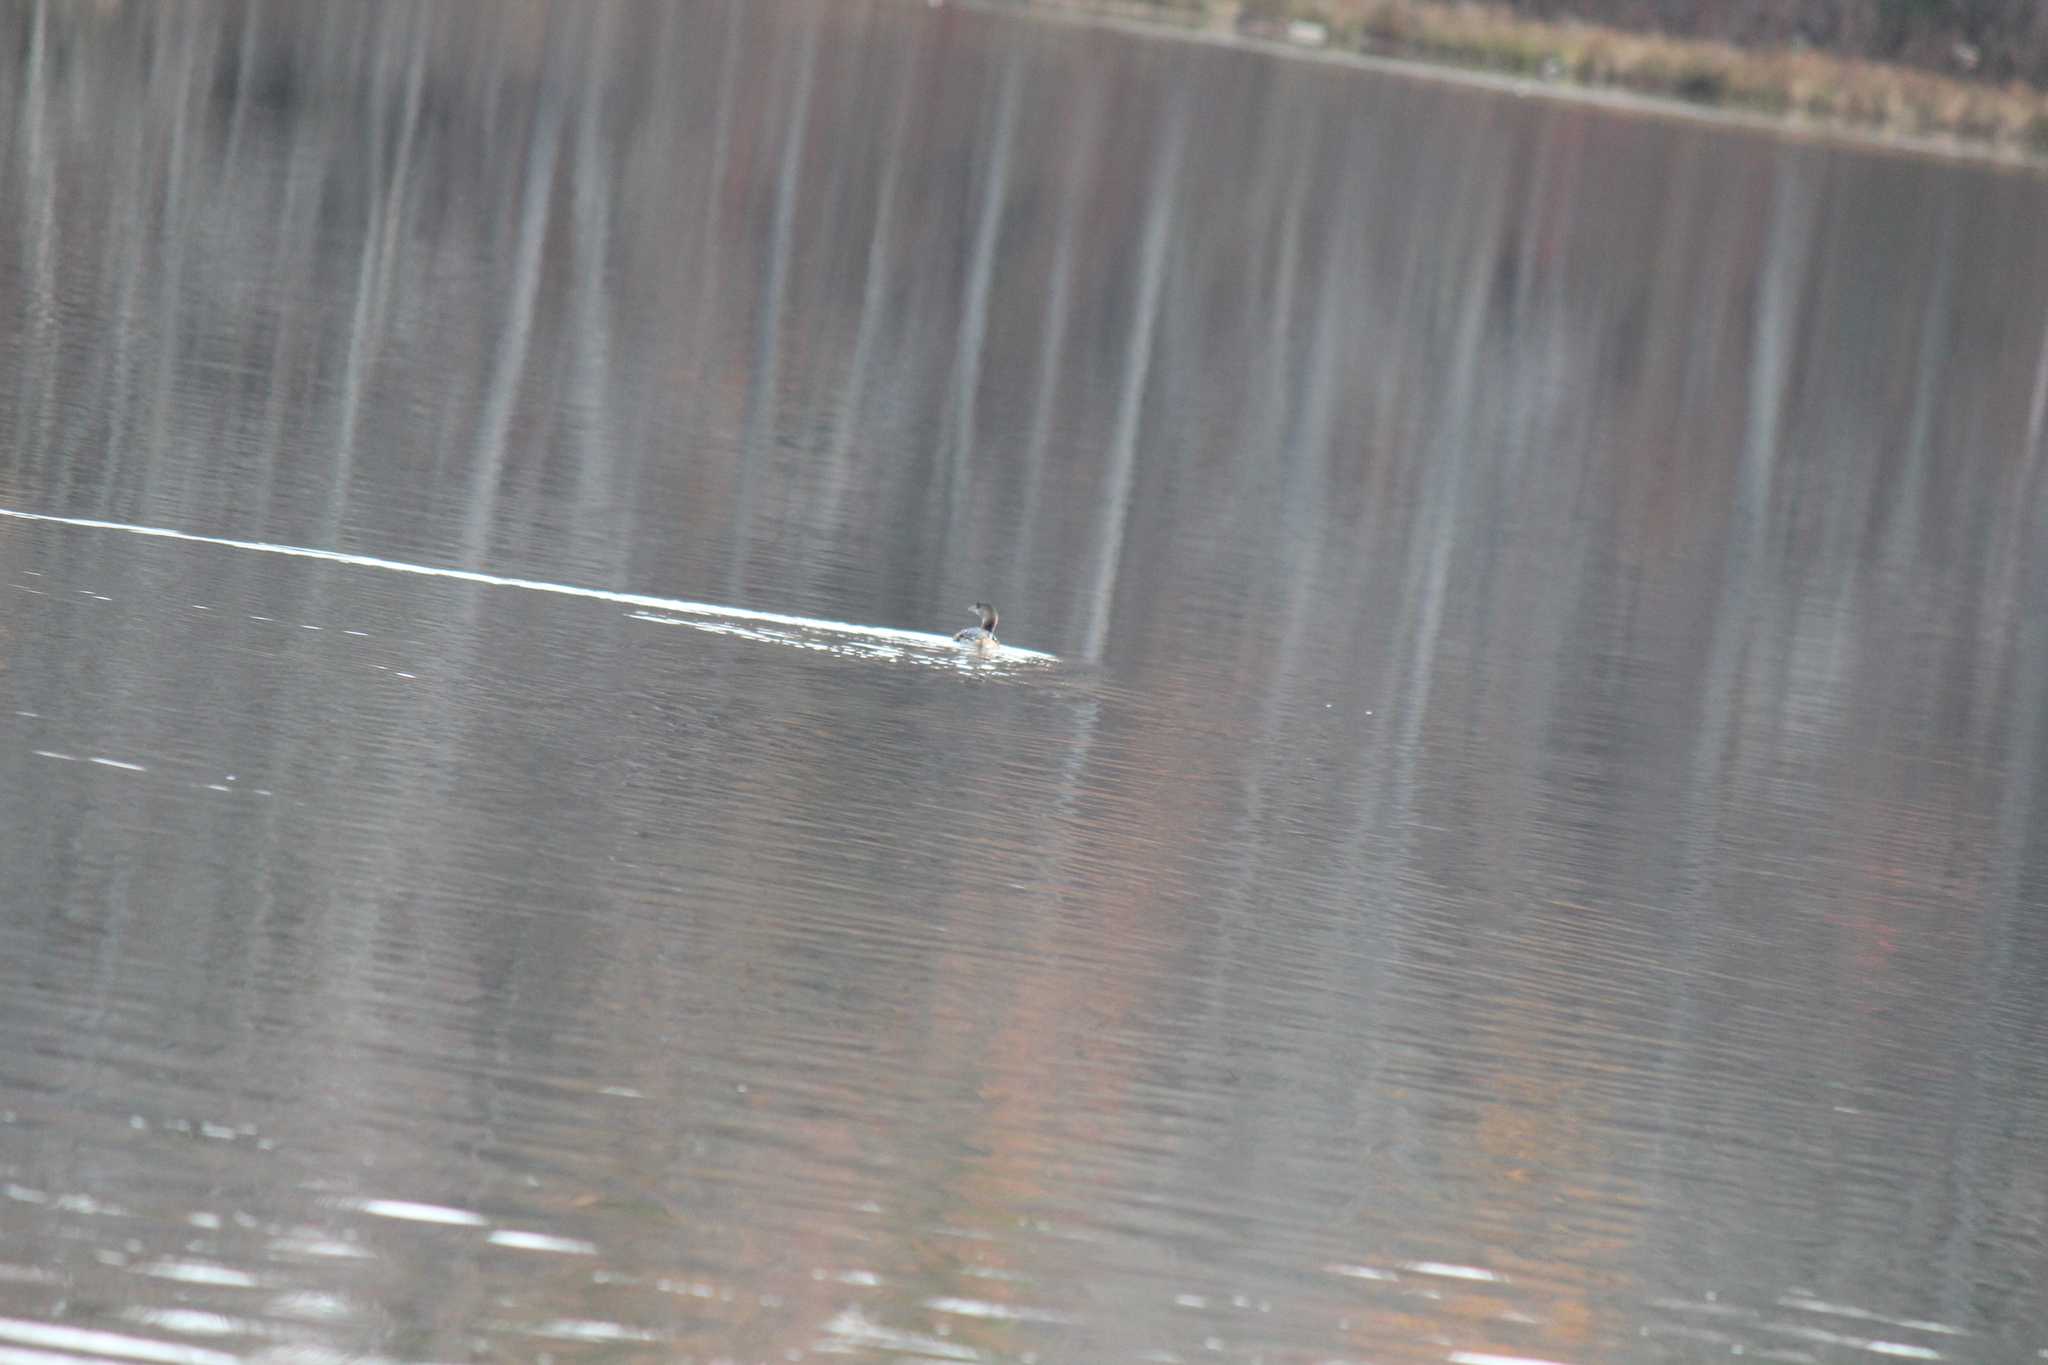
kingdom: Animalia
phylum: Chordata
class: Aves
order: Podicipediformes
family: Podicipedidae
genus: Podilymbus
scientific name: Podilymbus podiceps
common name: Pied-billed grebe
